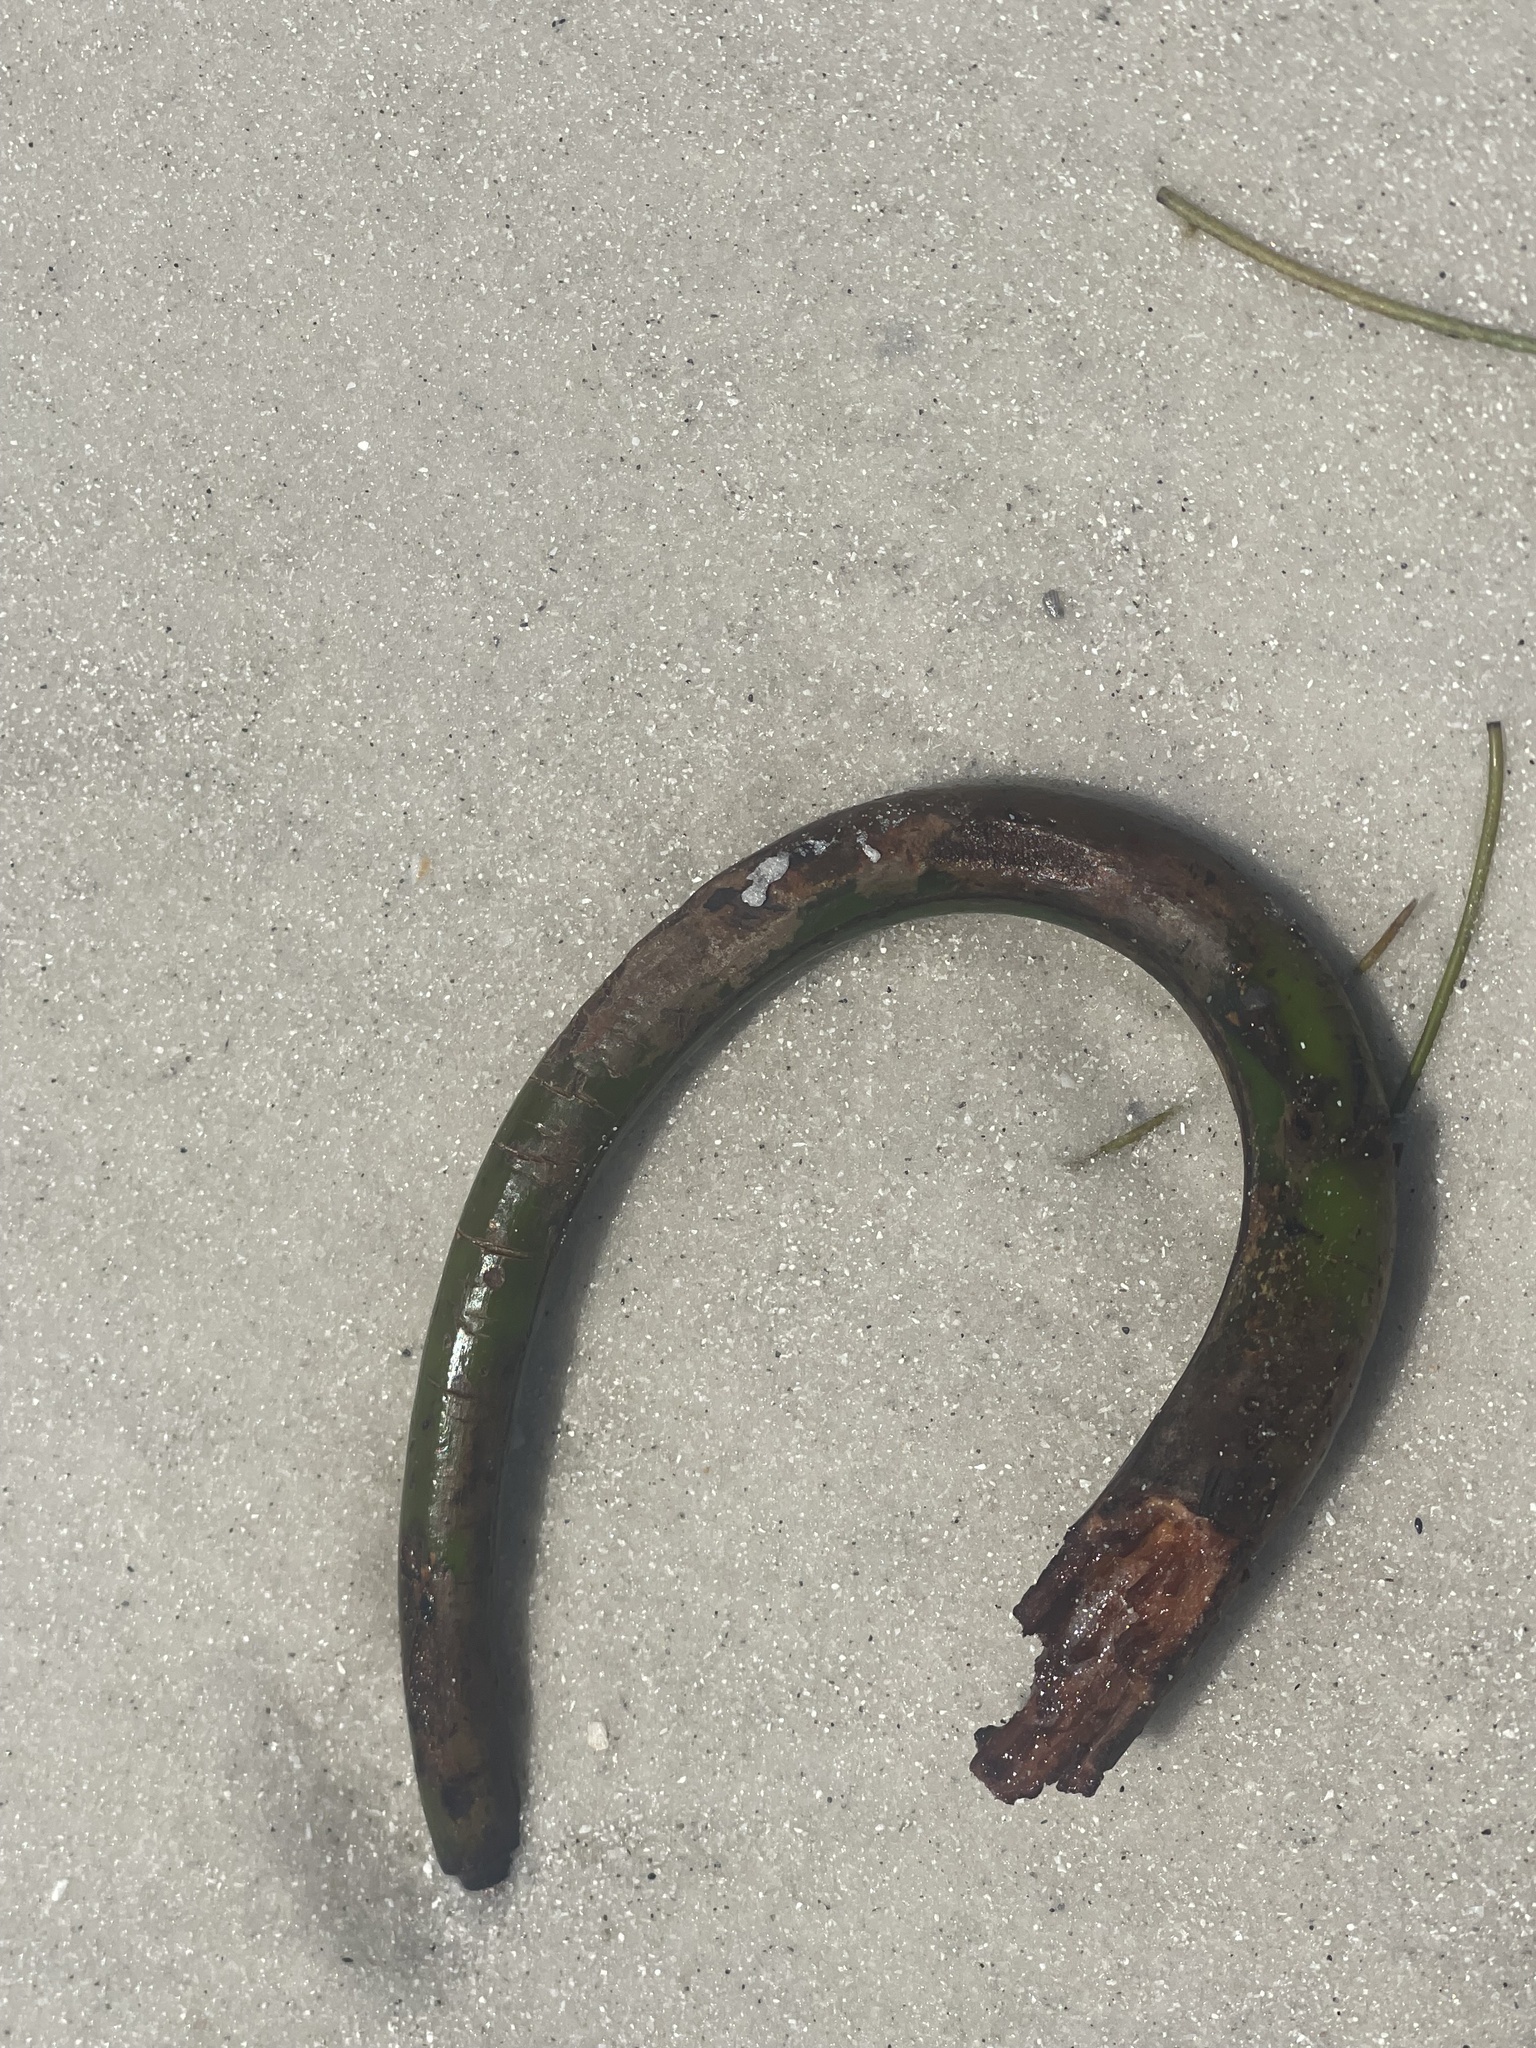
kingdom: Plantae
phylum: Tracheophyta
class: Magnoliopsida
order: Malpighiales
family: Rhizophoraceae
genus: Rhizophora
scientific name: Rhizophora mangle
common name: Red mangrove
